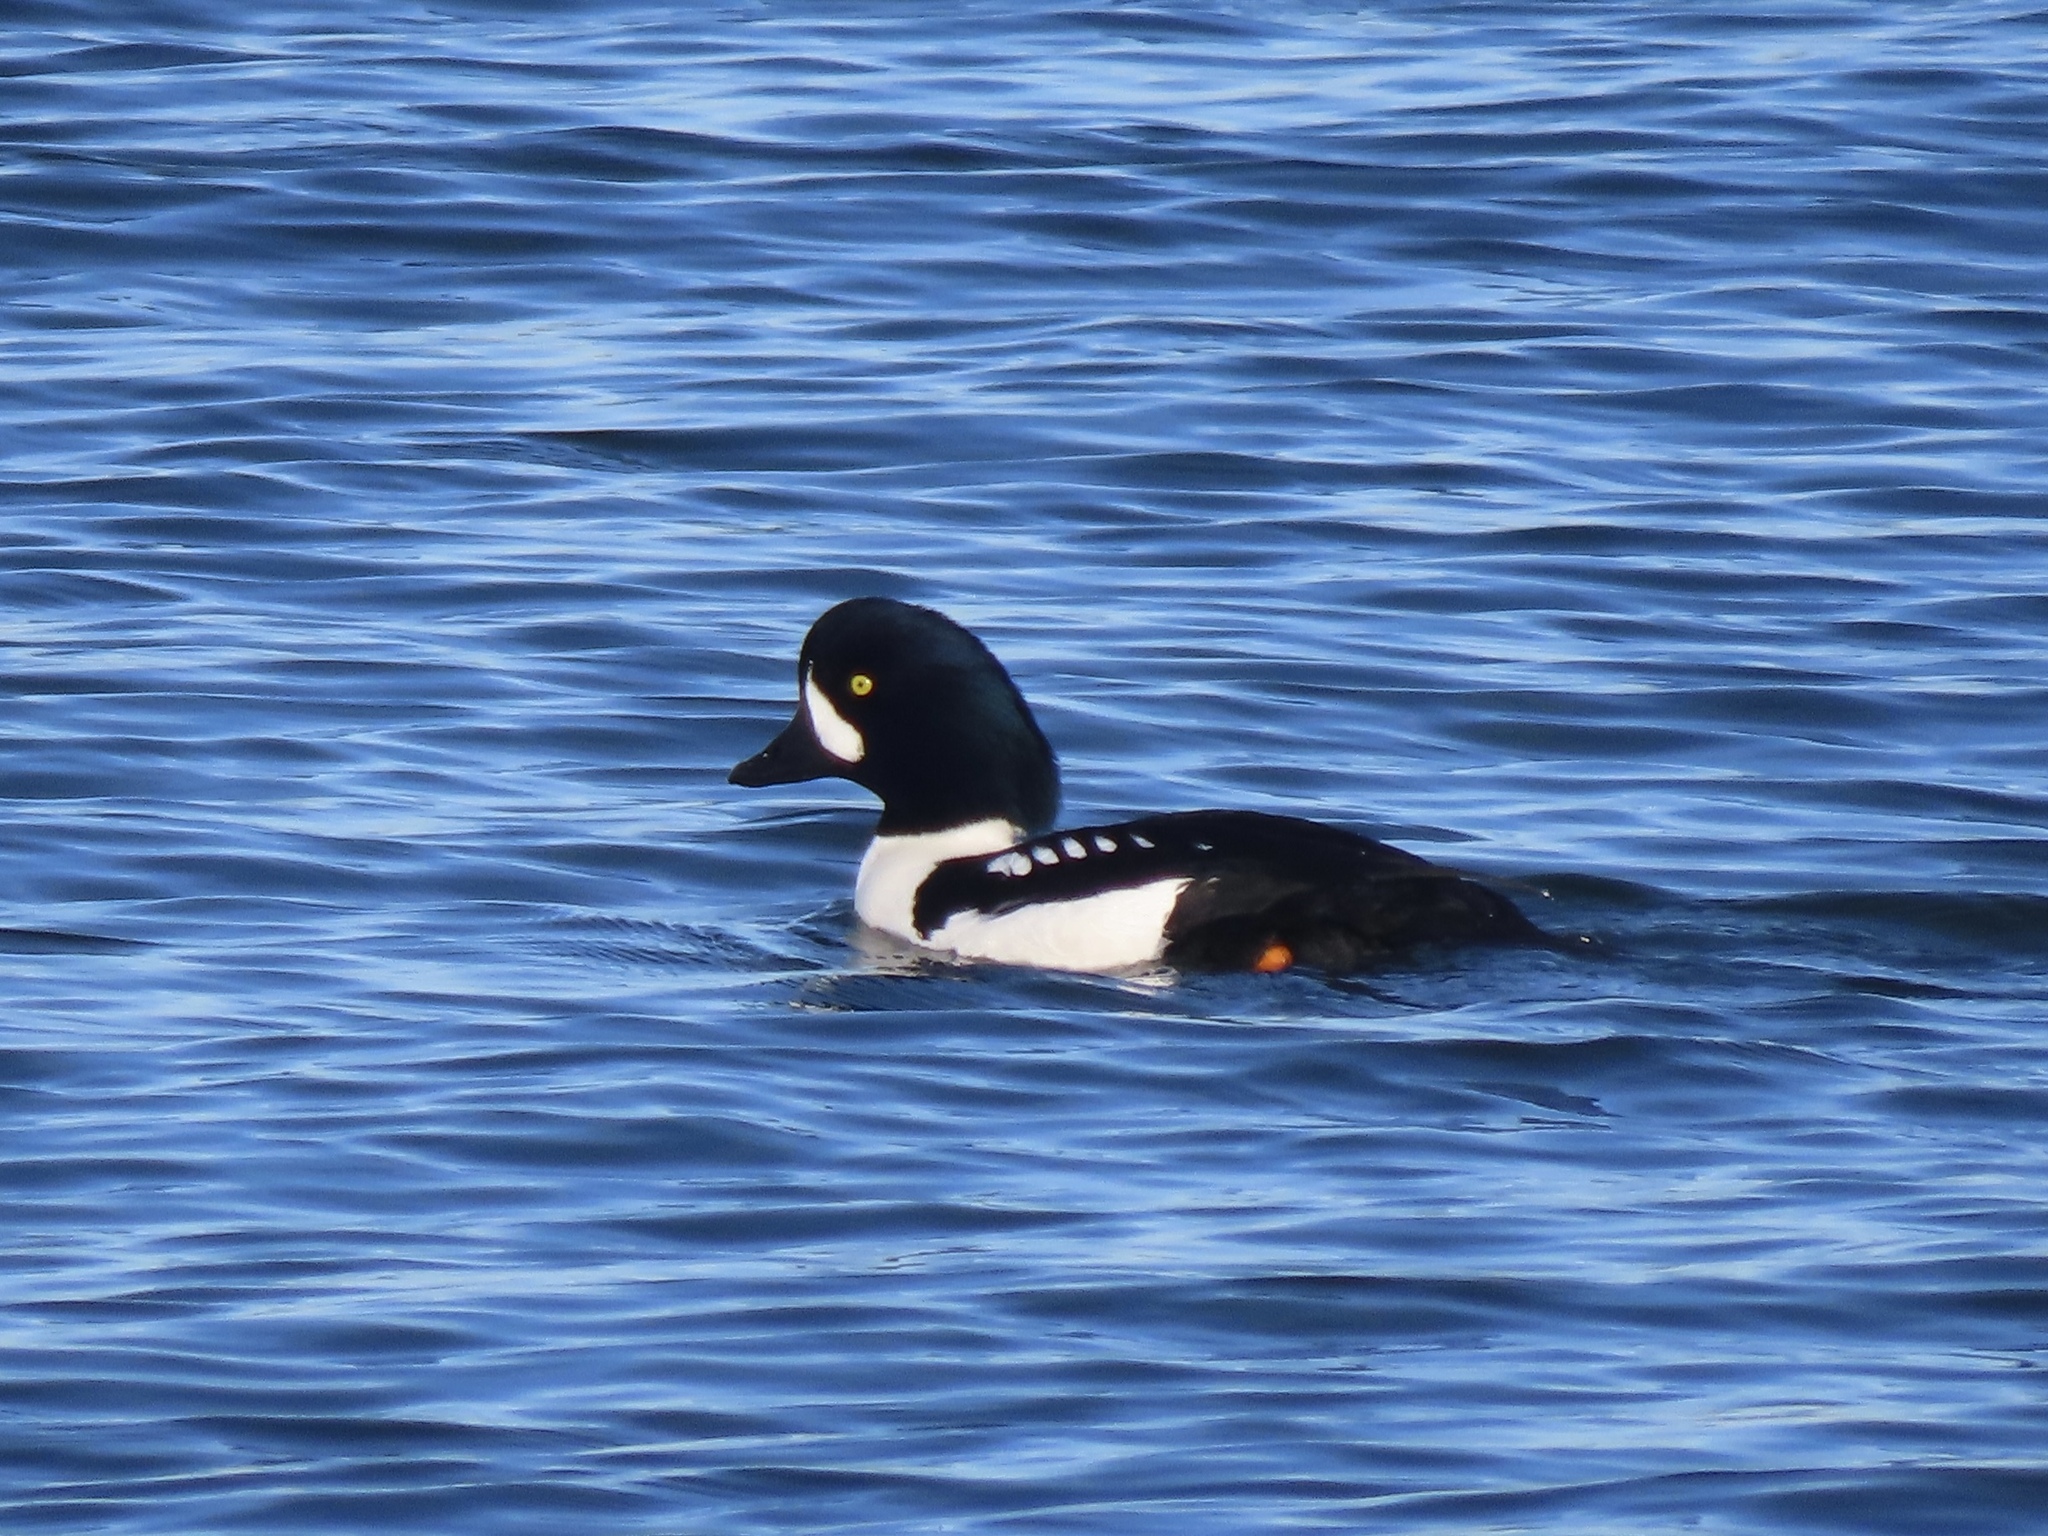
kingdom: Animalia
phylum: Chordata
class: Aves
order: Anseriformes
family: Anatidae
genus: Bucephala
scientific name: Bucephala islandica
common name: Barrow's goldeneye
